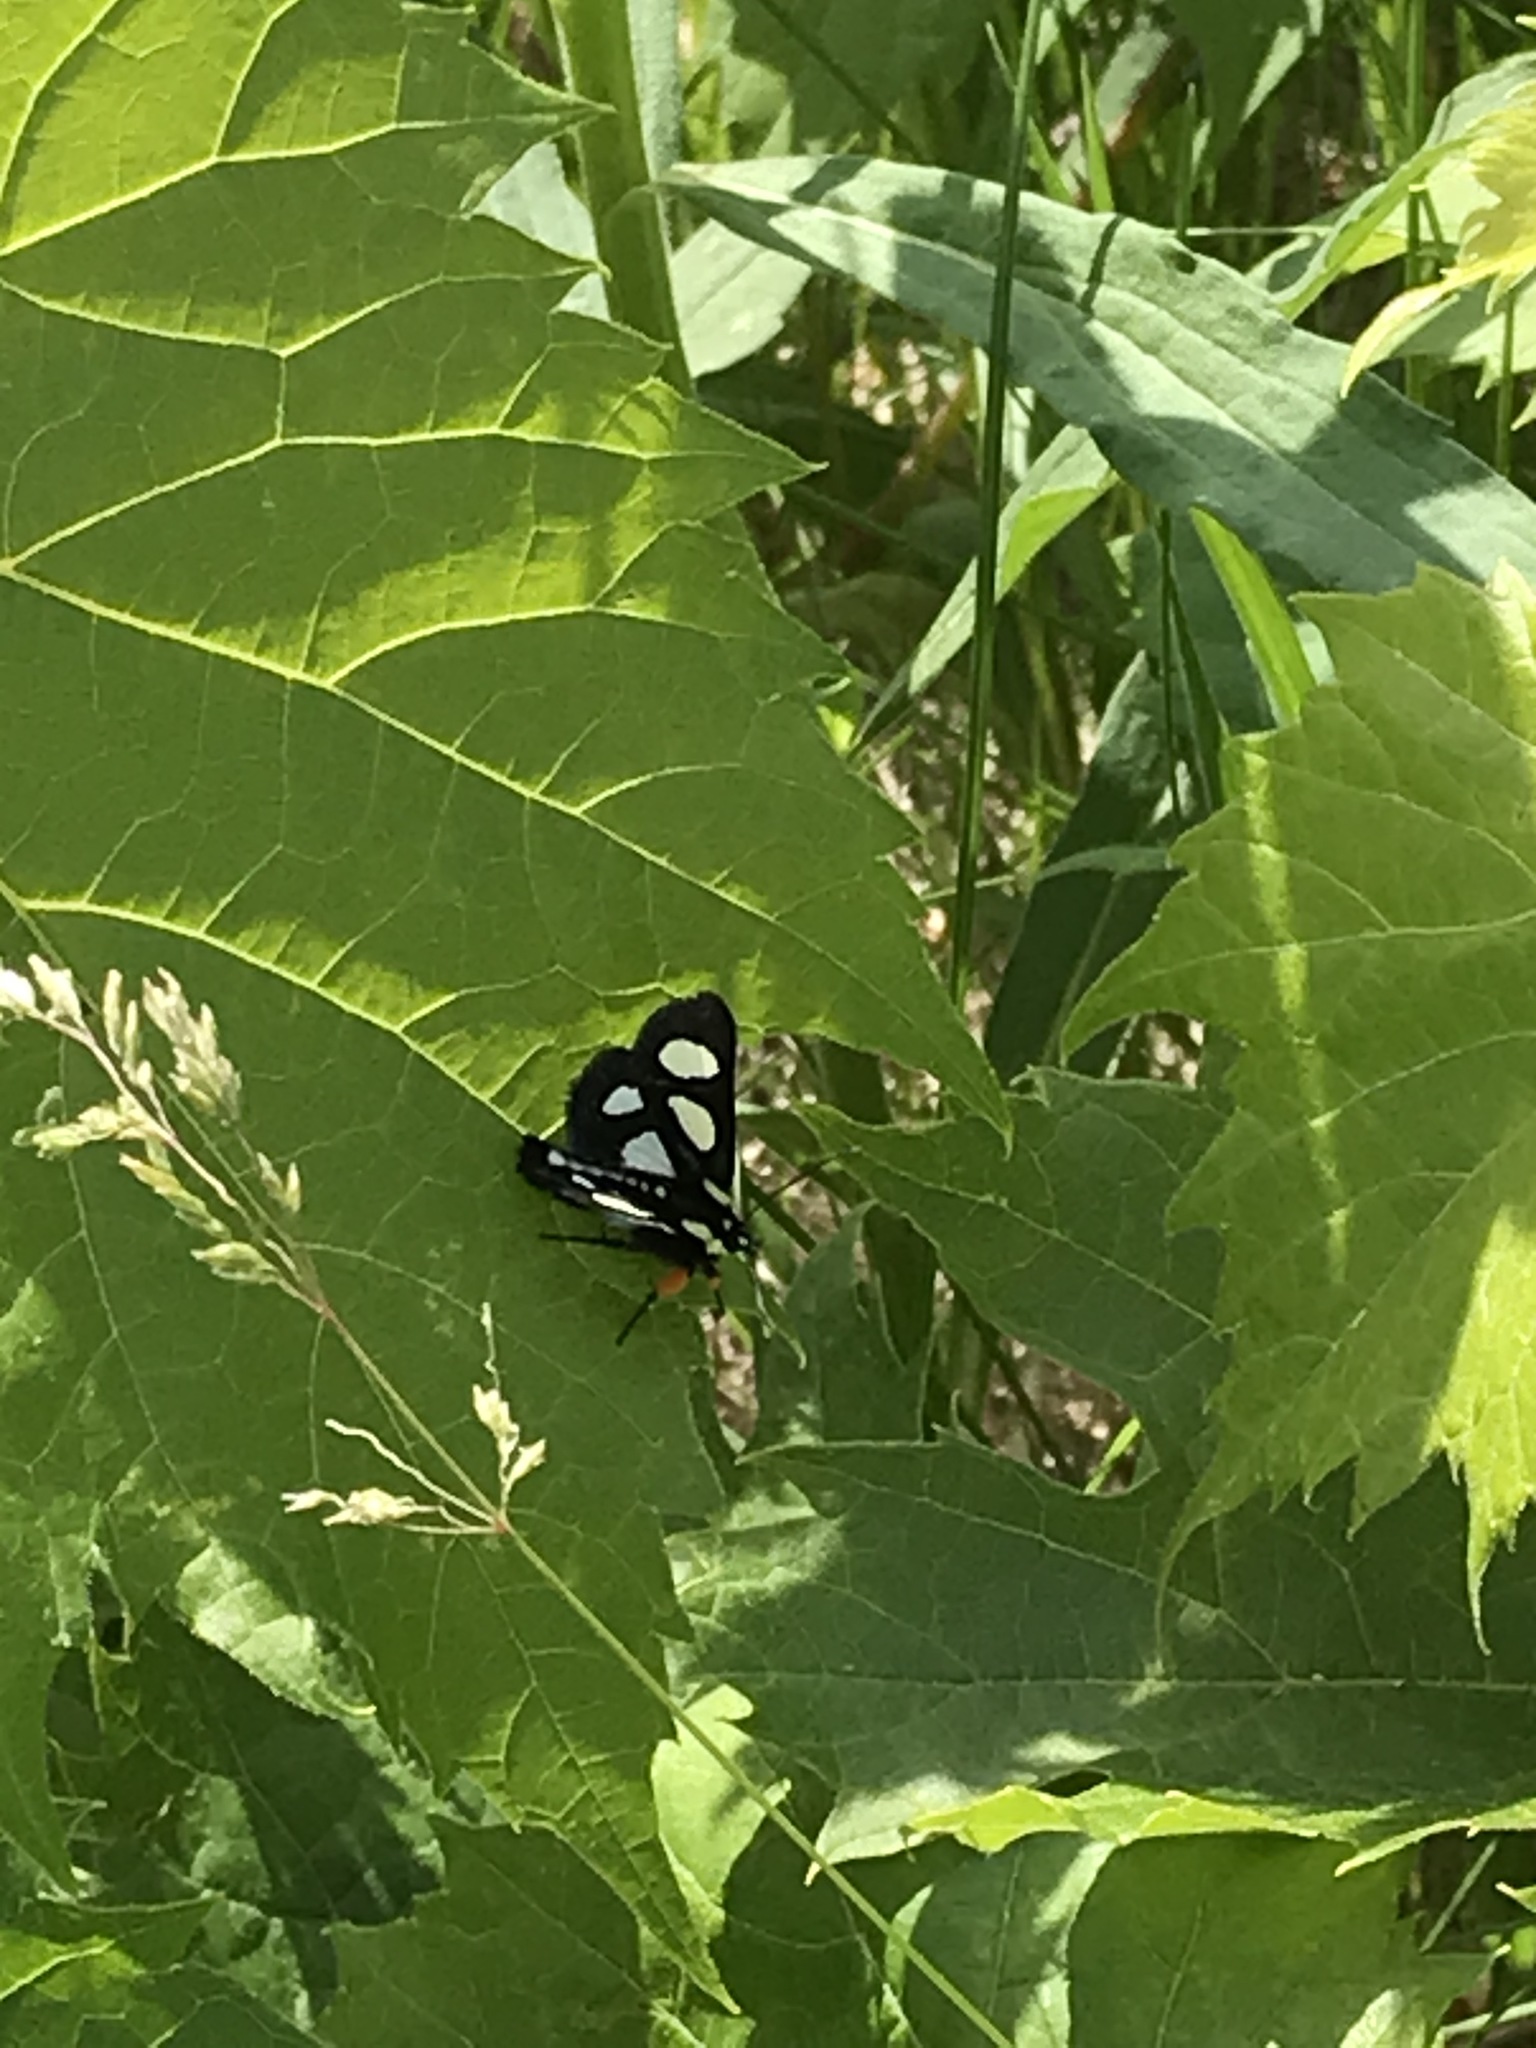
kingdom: Animalia
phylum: Arthropoda
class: Insecta
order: Lepidoptera
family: Noctuidae
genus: Alypia
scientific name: Alypia octomaculata
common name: Eight-spotted forester
